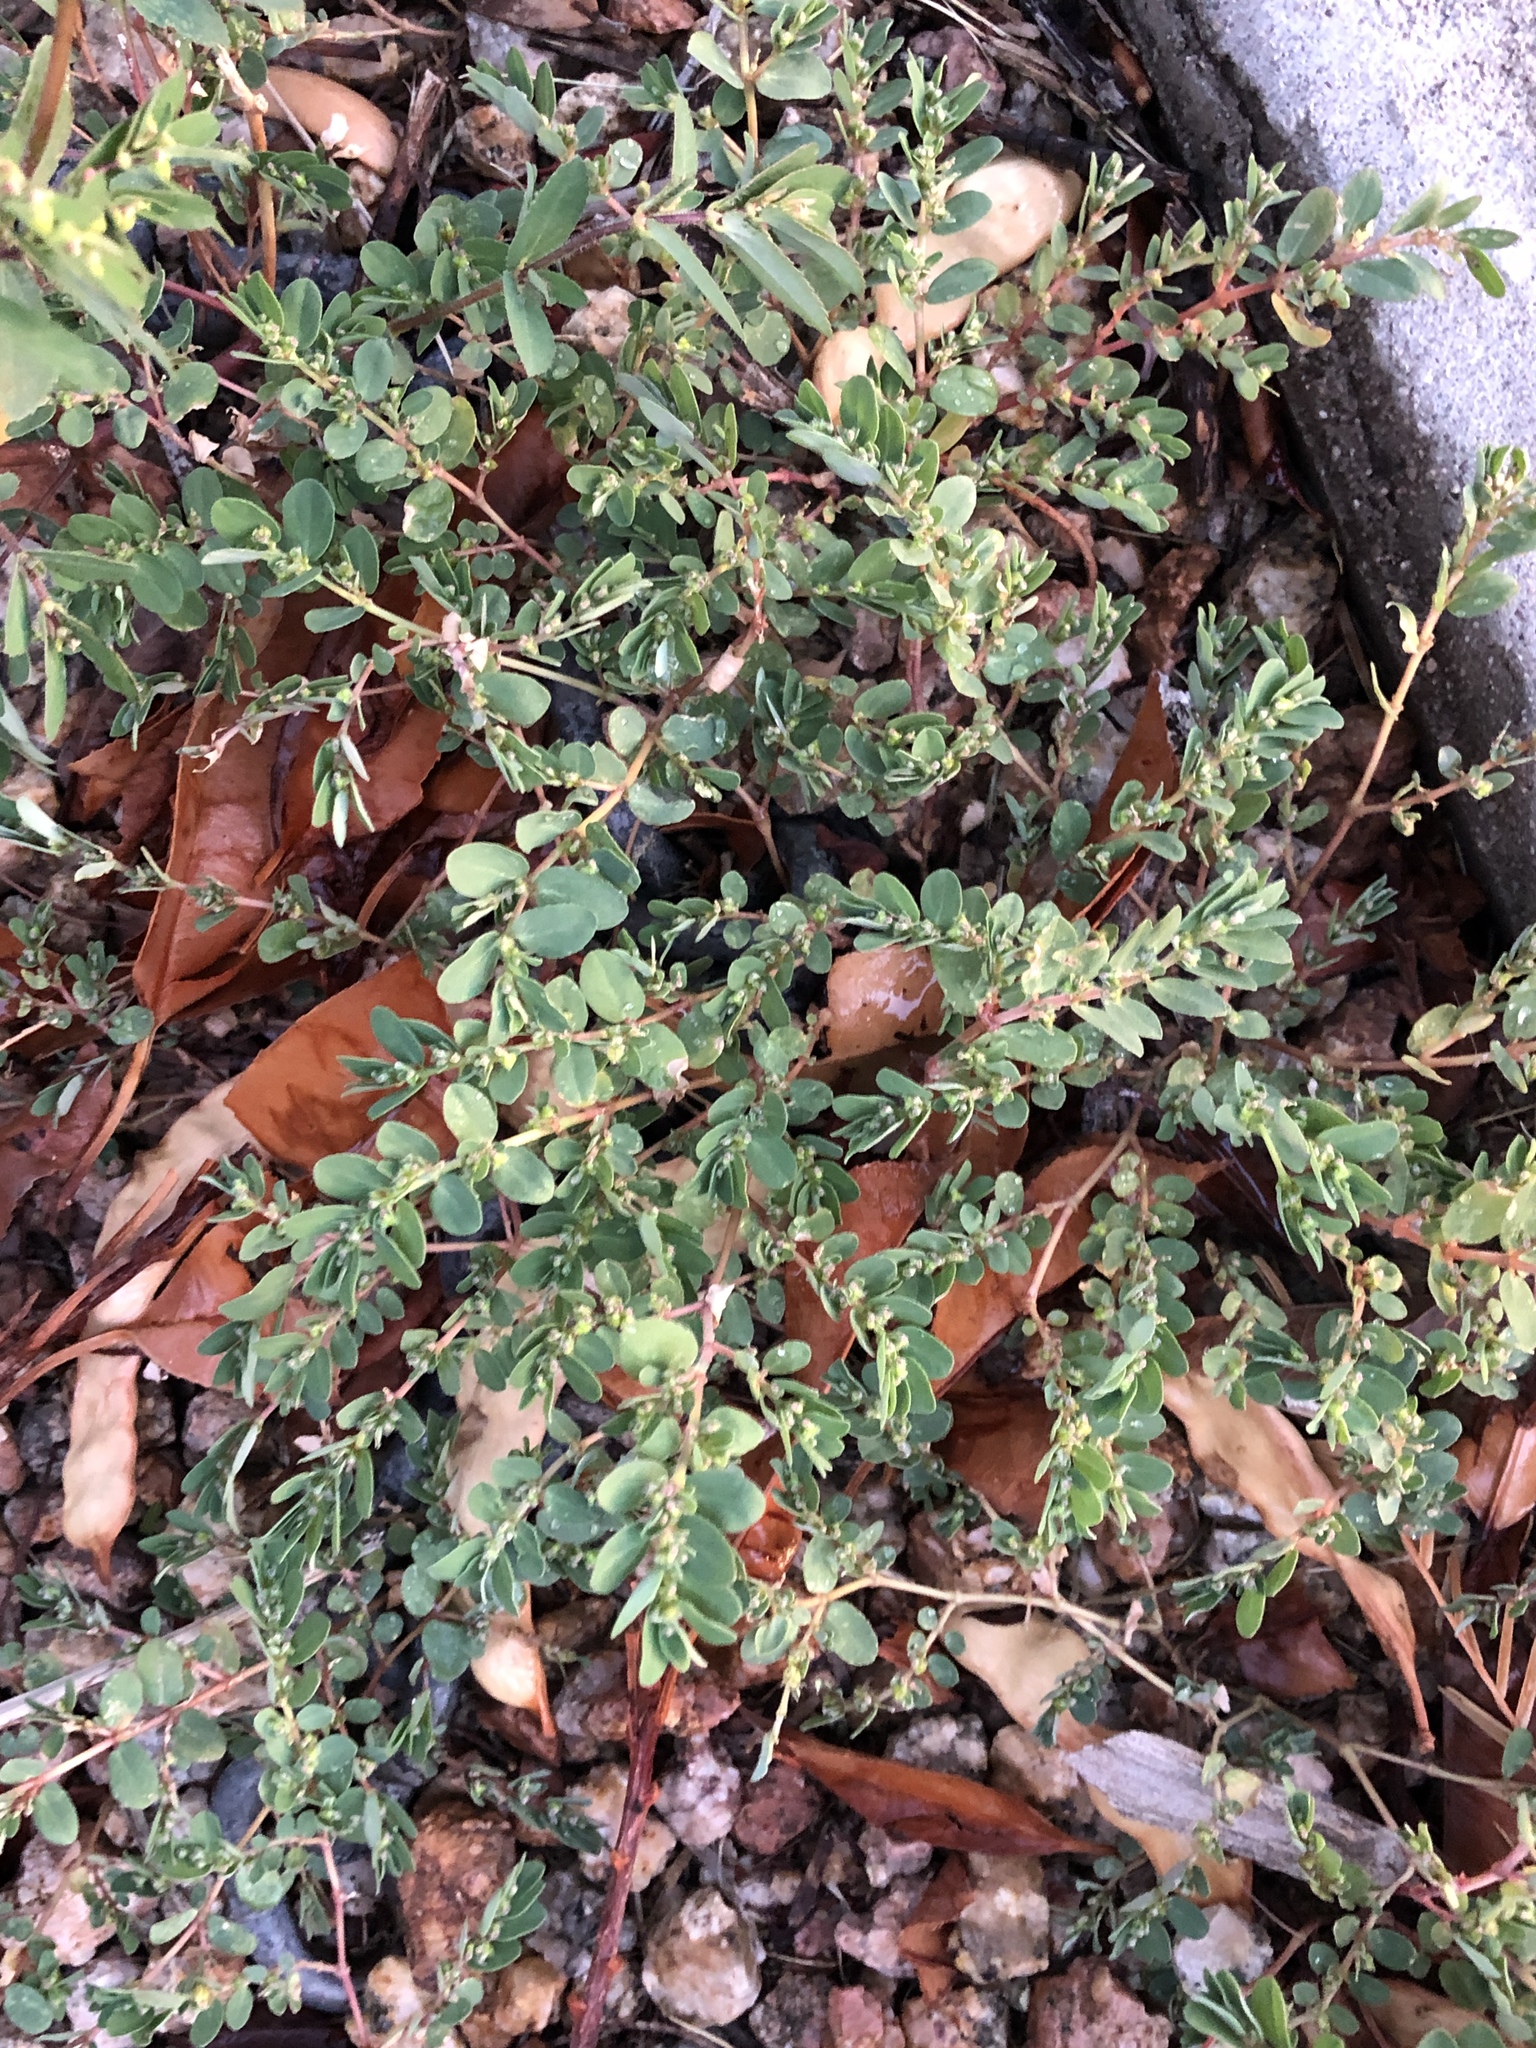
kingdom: Plantae
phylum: Tracheophyta
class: Magnoliopsida
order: Malpighiales
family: Euphorbiaceae
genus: Euphorbia
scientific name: Euphorbia prostrata
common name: Prostrate sandmat
